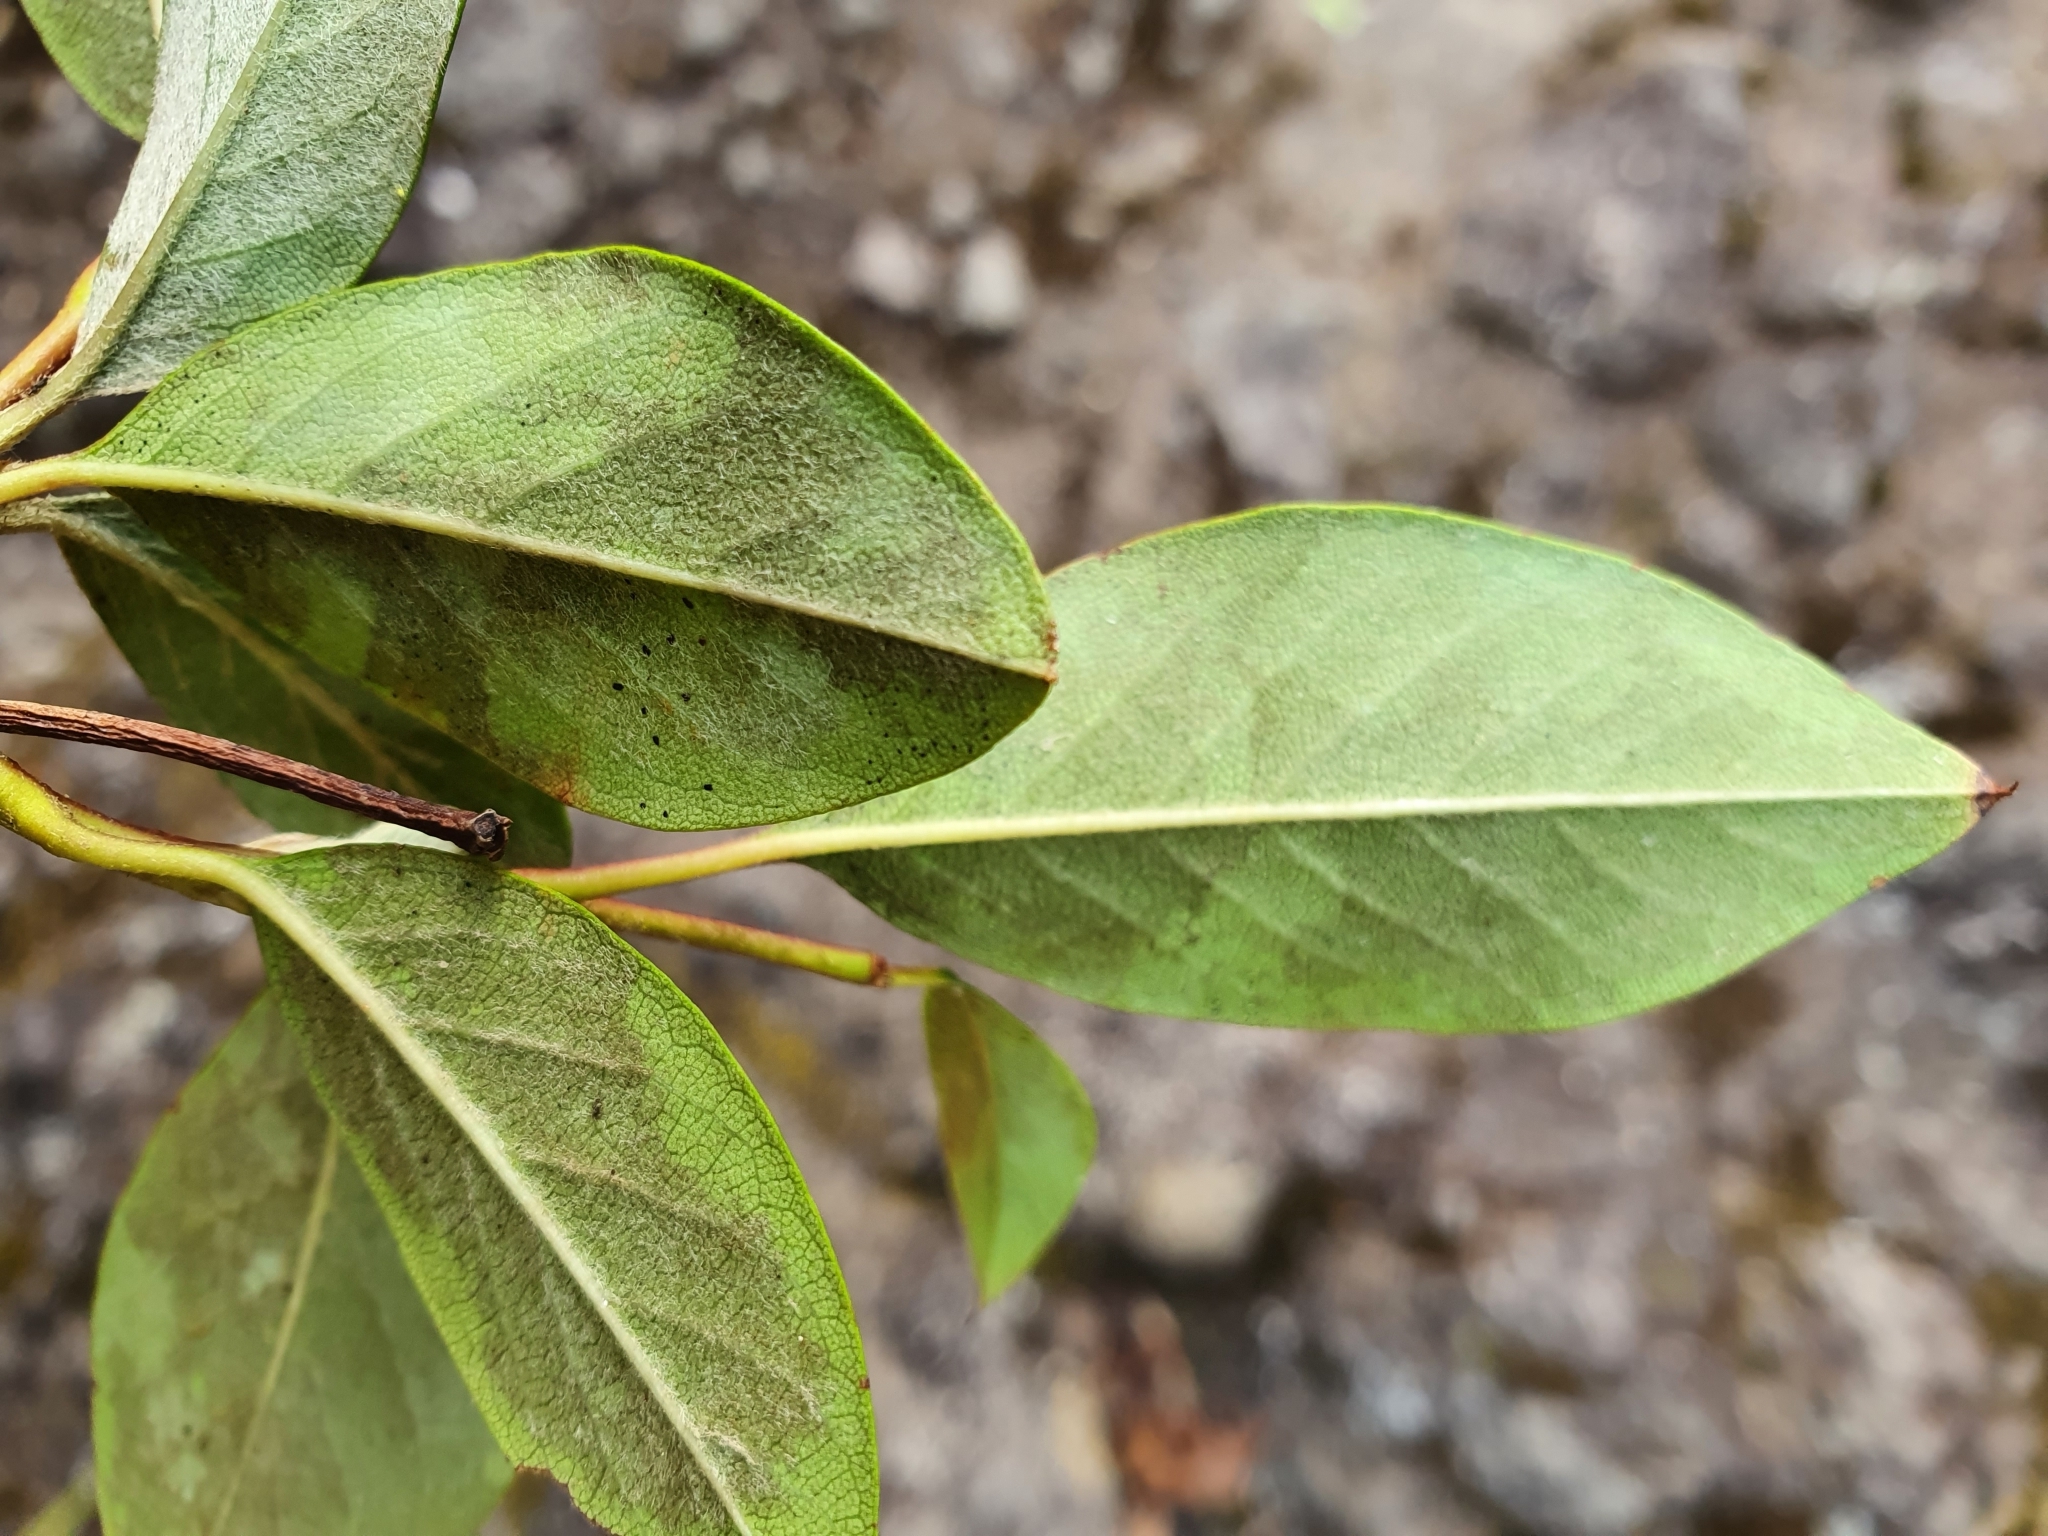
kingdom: Plantae
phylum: Tracheophyta
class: Magnoliopsida
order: Rosales
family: Rosaceae
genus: Cotoneaster
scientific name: Cotoneaster glaucophyllus
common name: Glaucous cotoneaster
